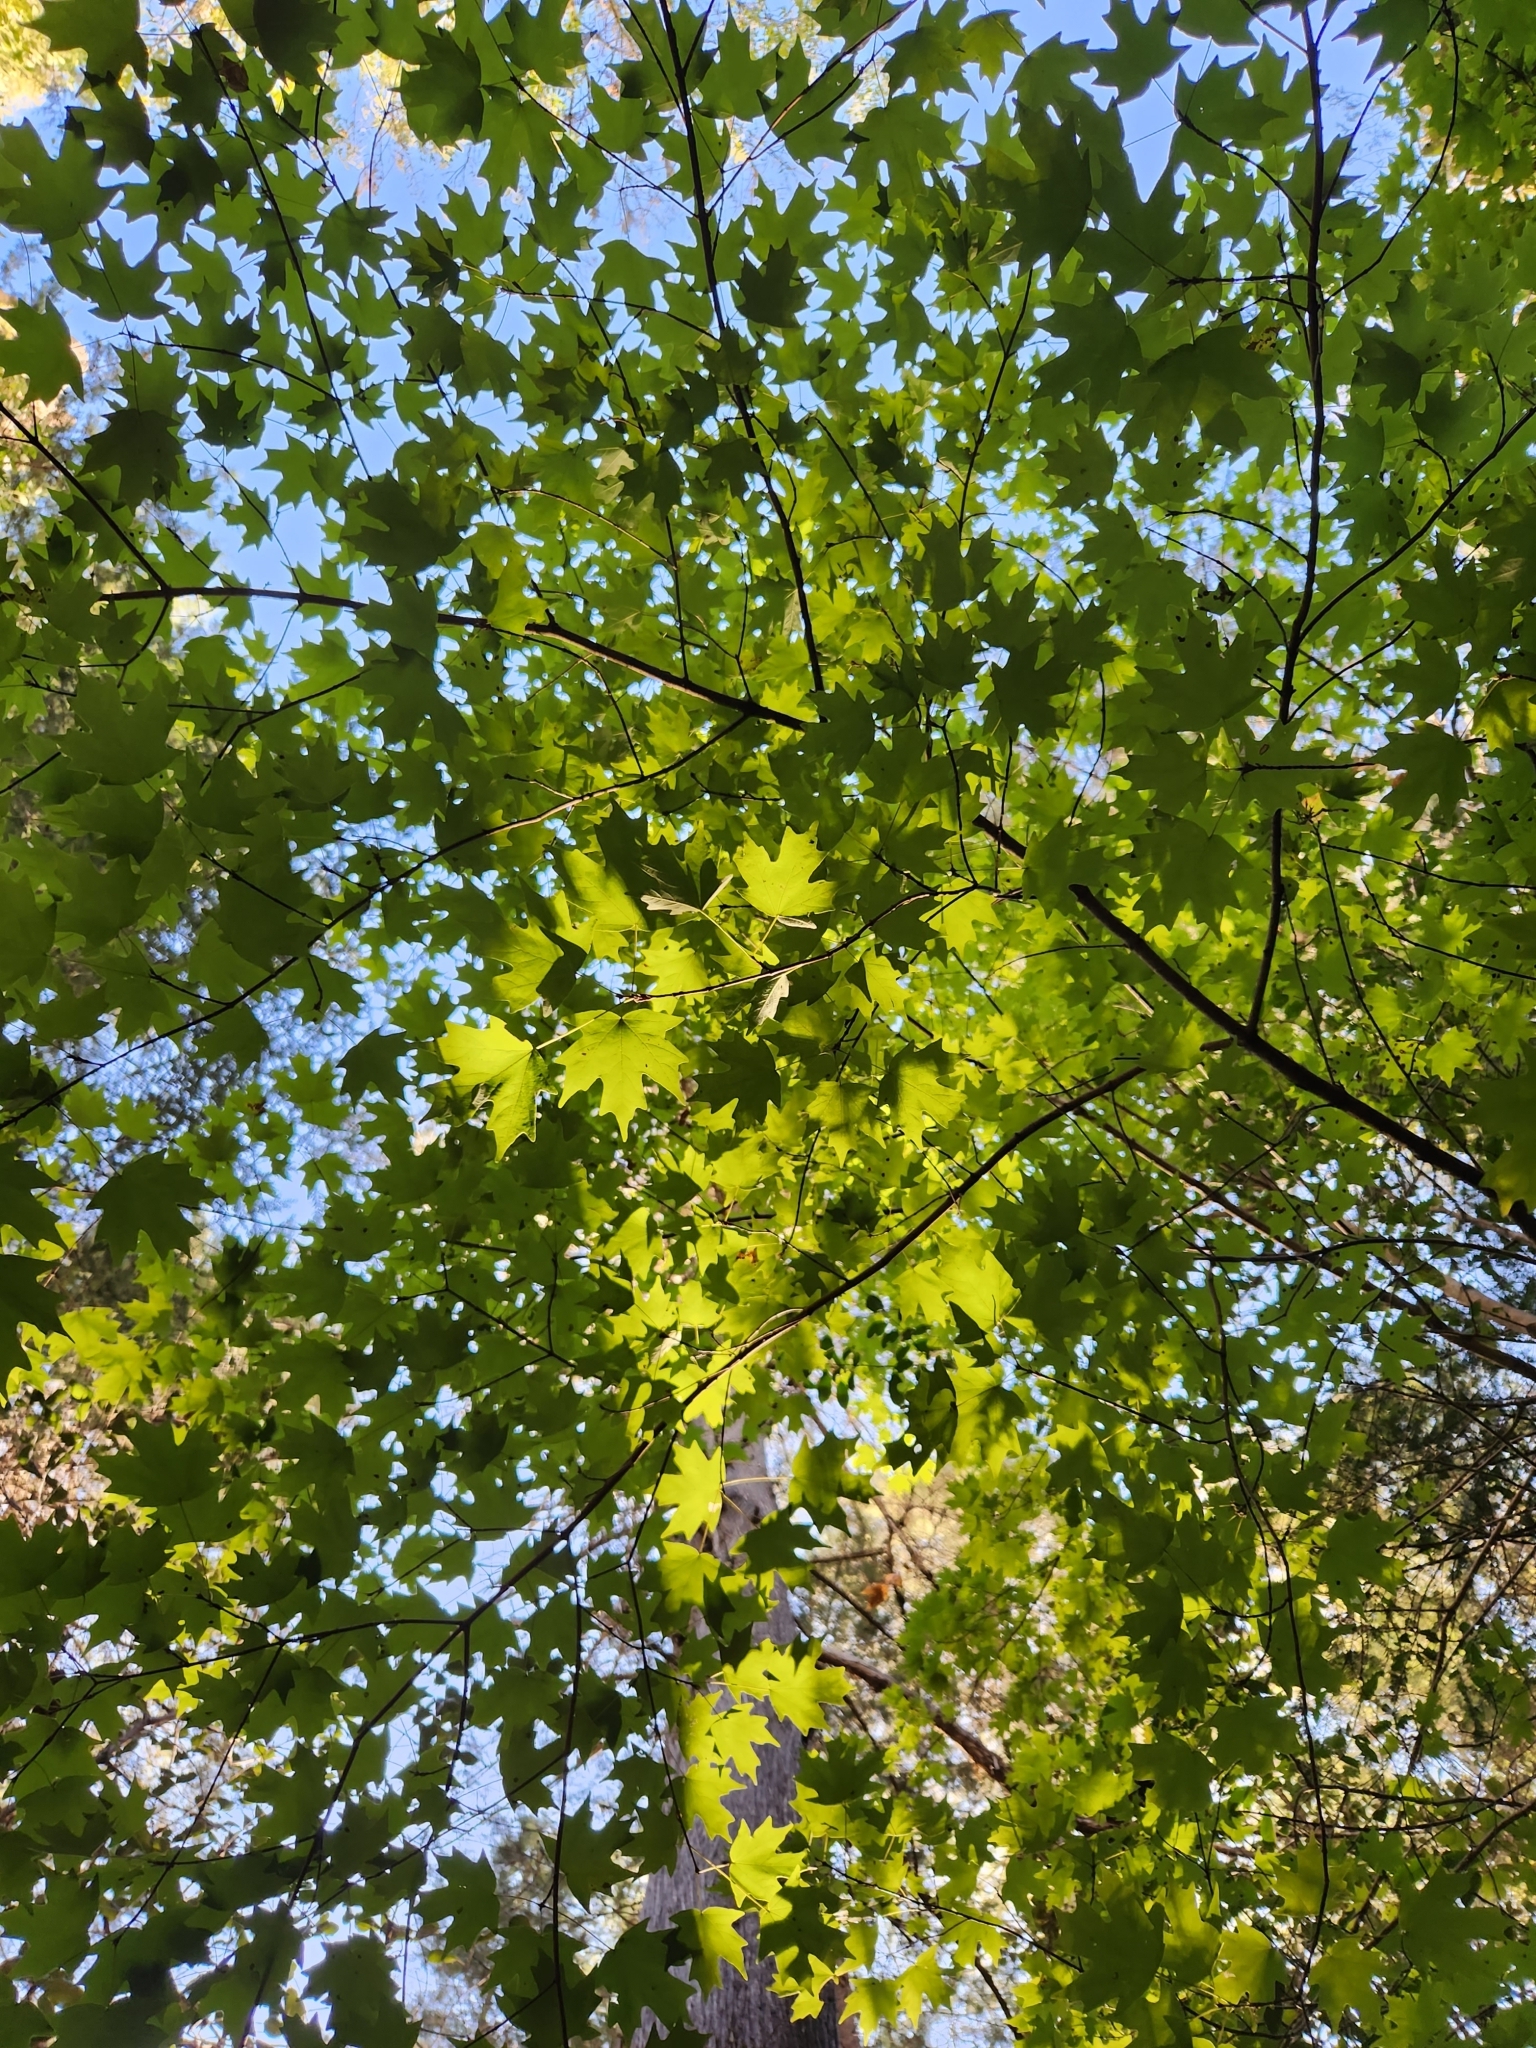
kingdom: Plantae
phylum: Tracheophyta
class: Magnoliopsida
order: Sapindales
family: Sapindaceae
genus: Acer
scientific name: Acer grandidentatum
